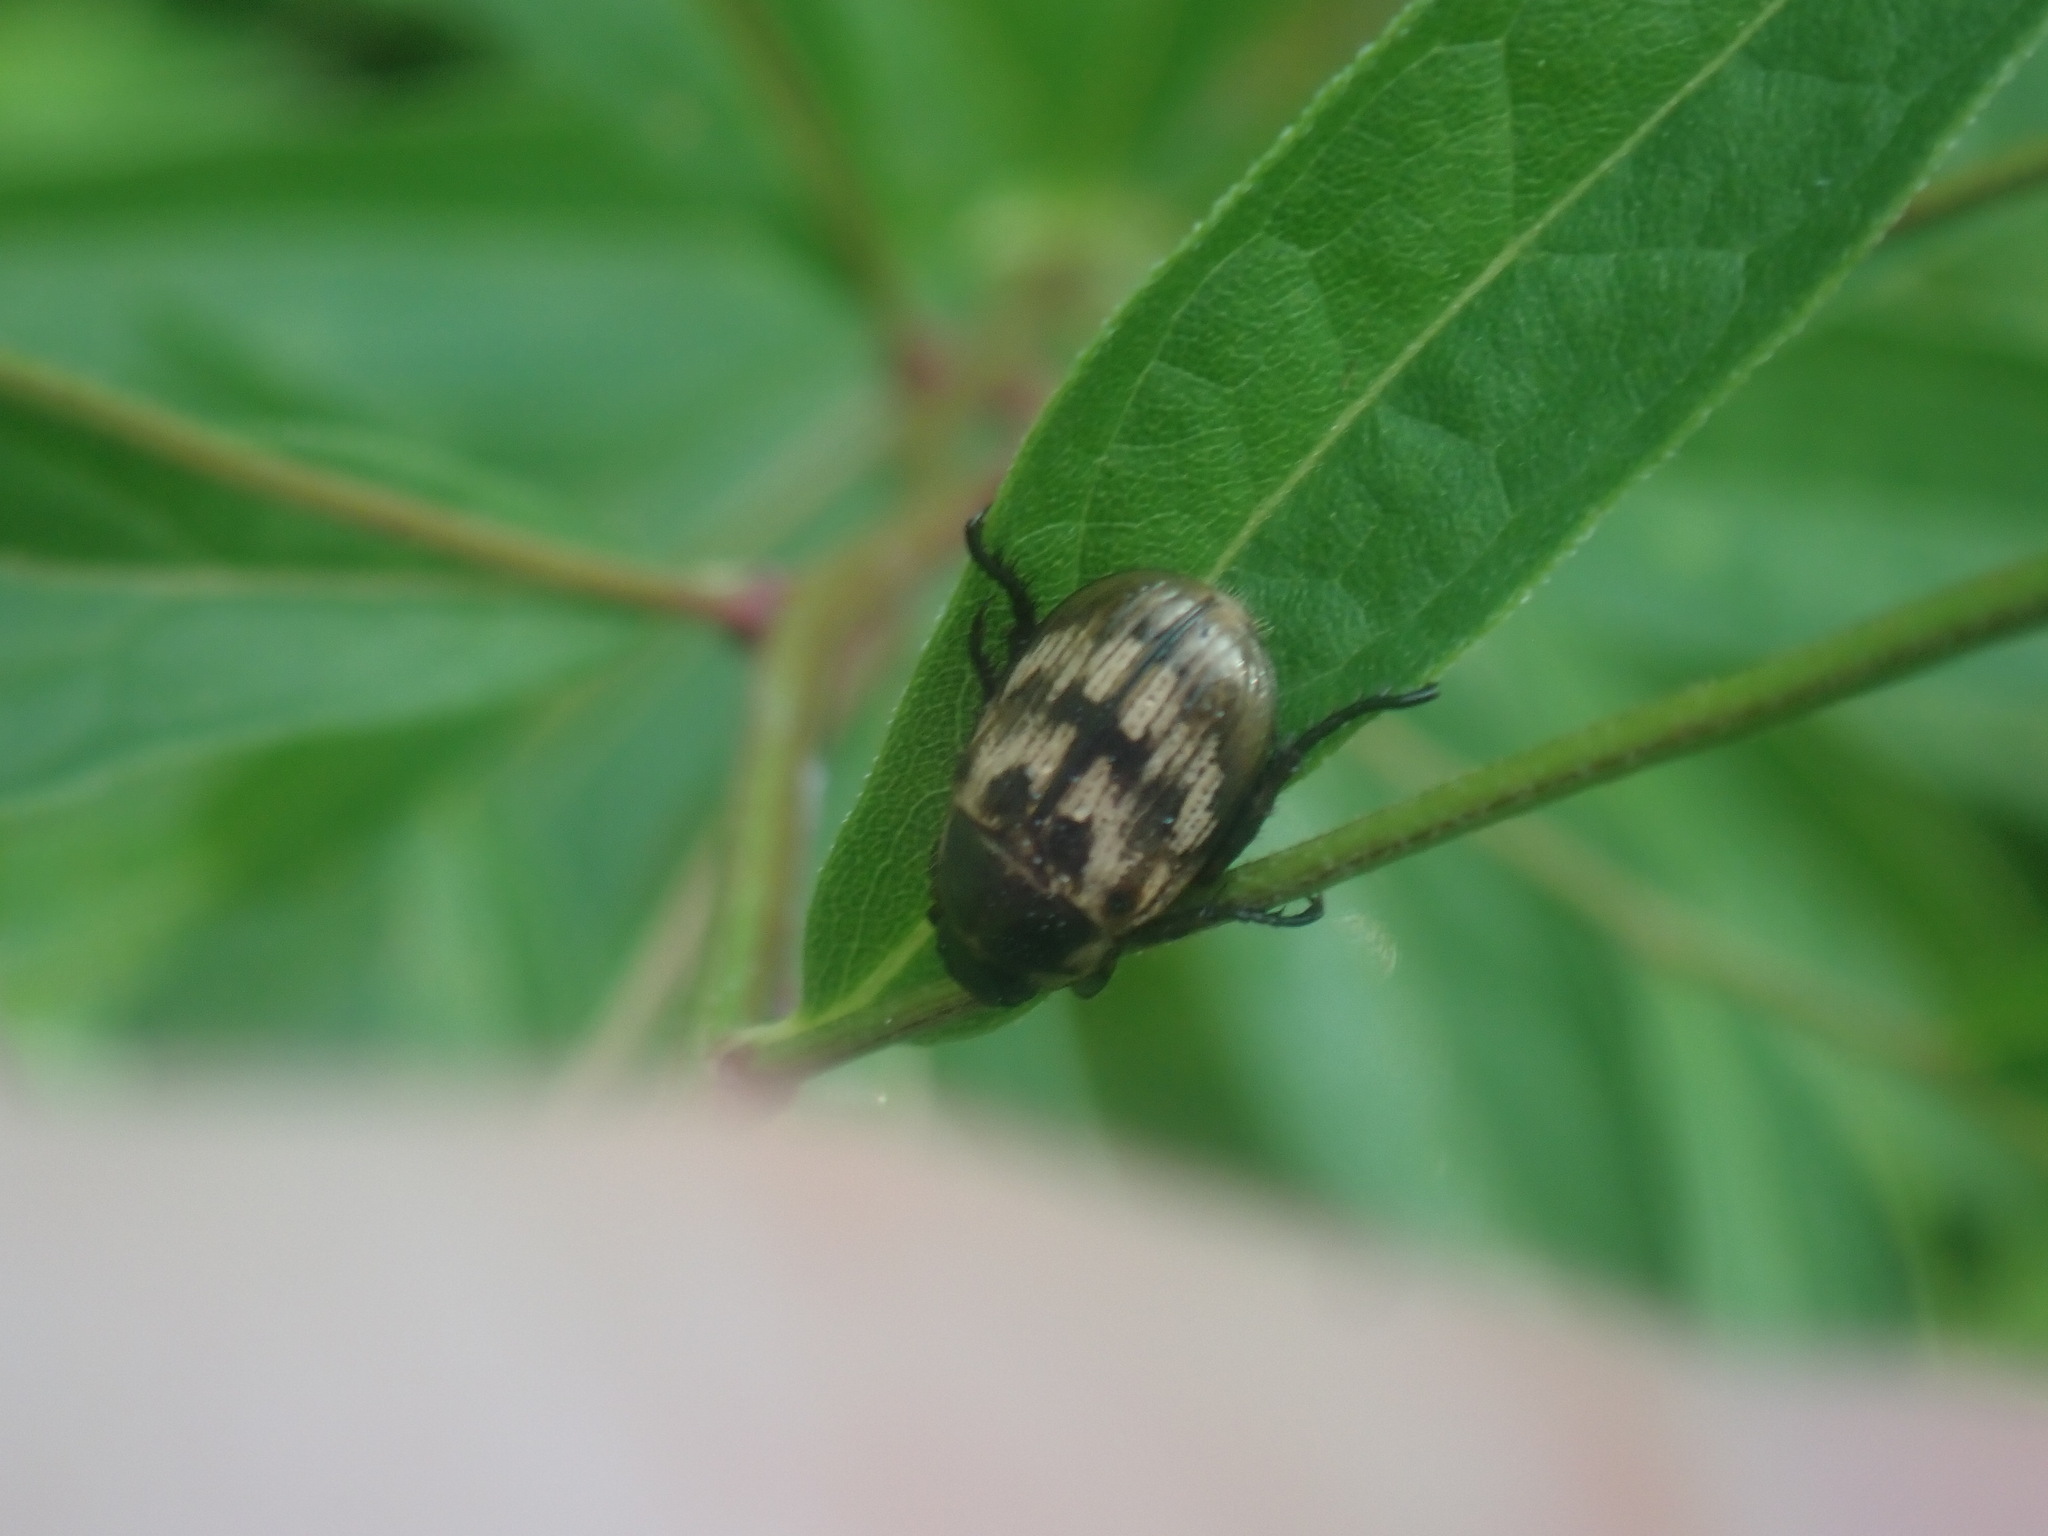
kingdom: Animalia
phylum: Arthropoda
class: Insecta
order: Coleoptera
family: Scarabaeidae
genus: Exomala
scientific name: Exomala orientalis
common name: Oriental beetle
